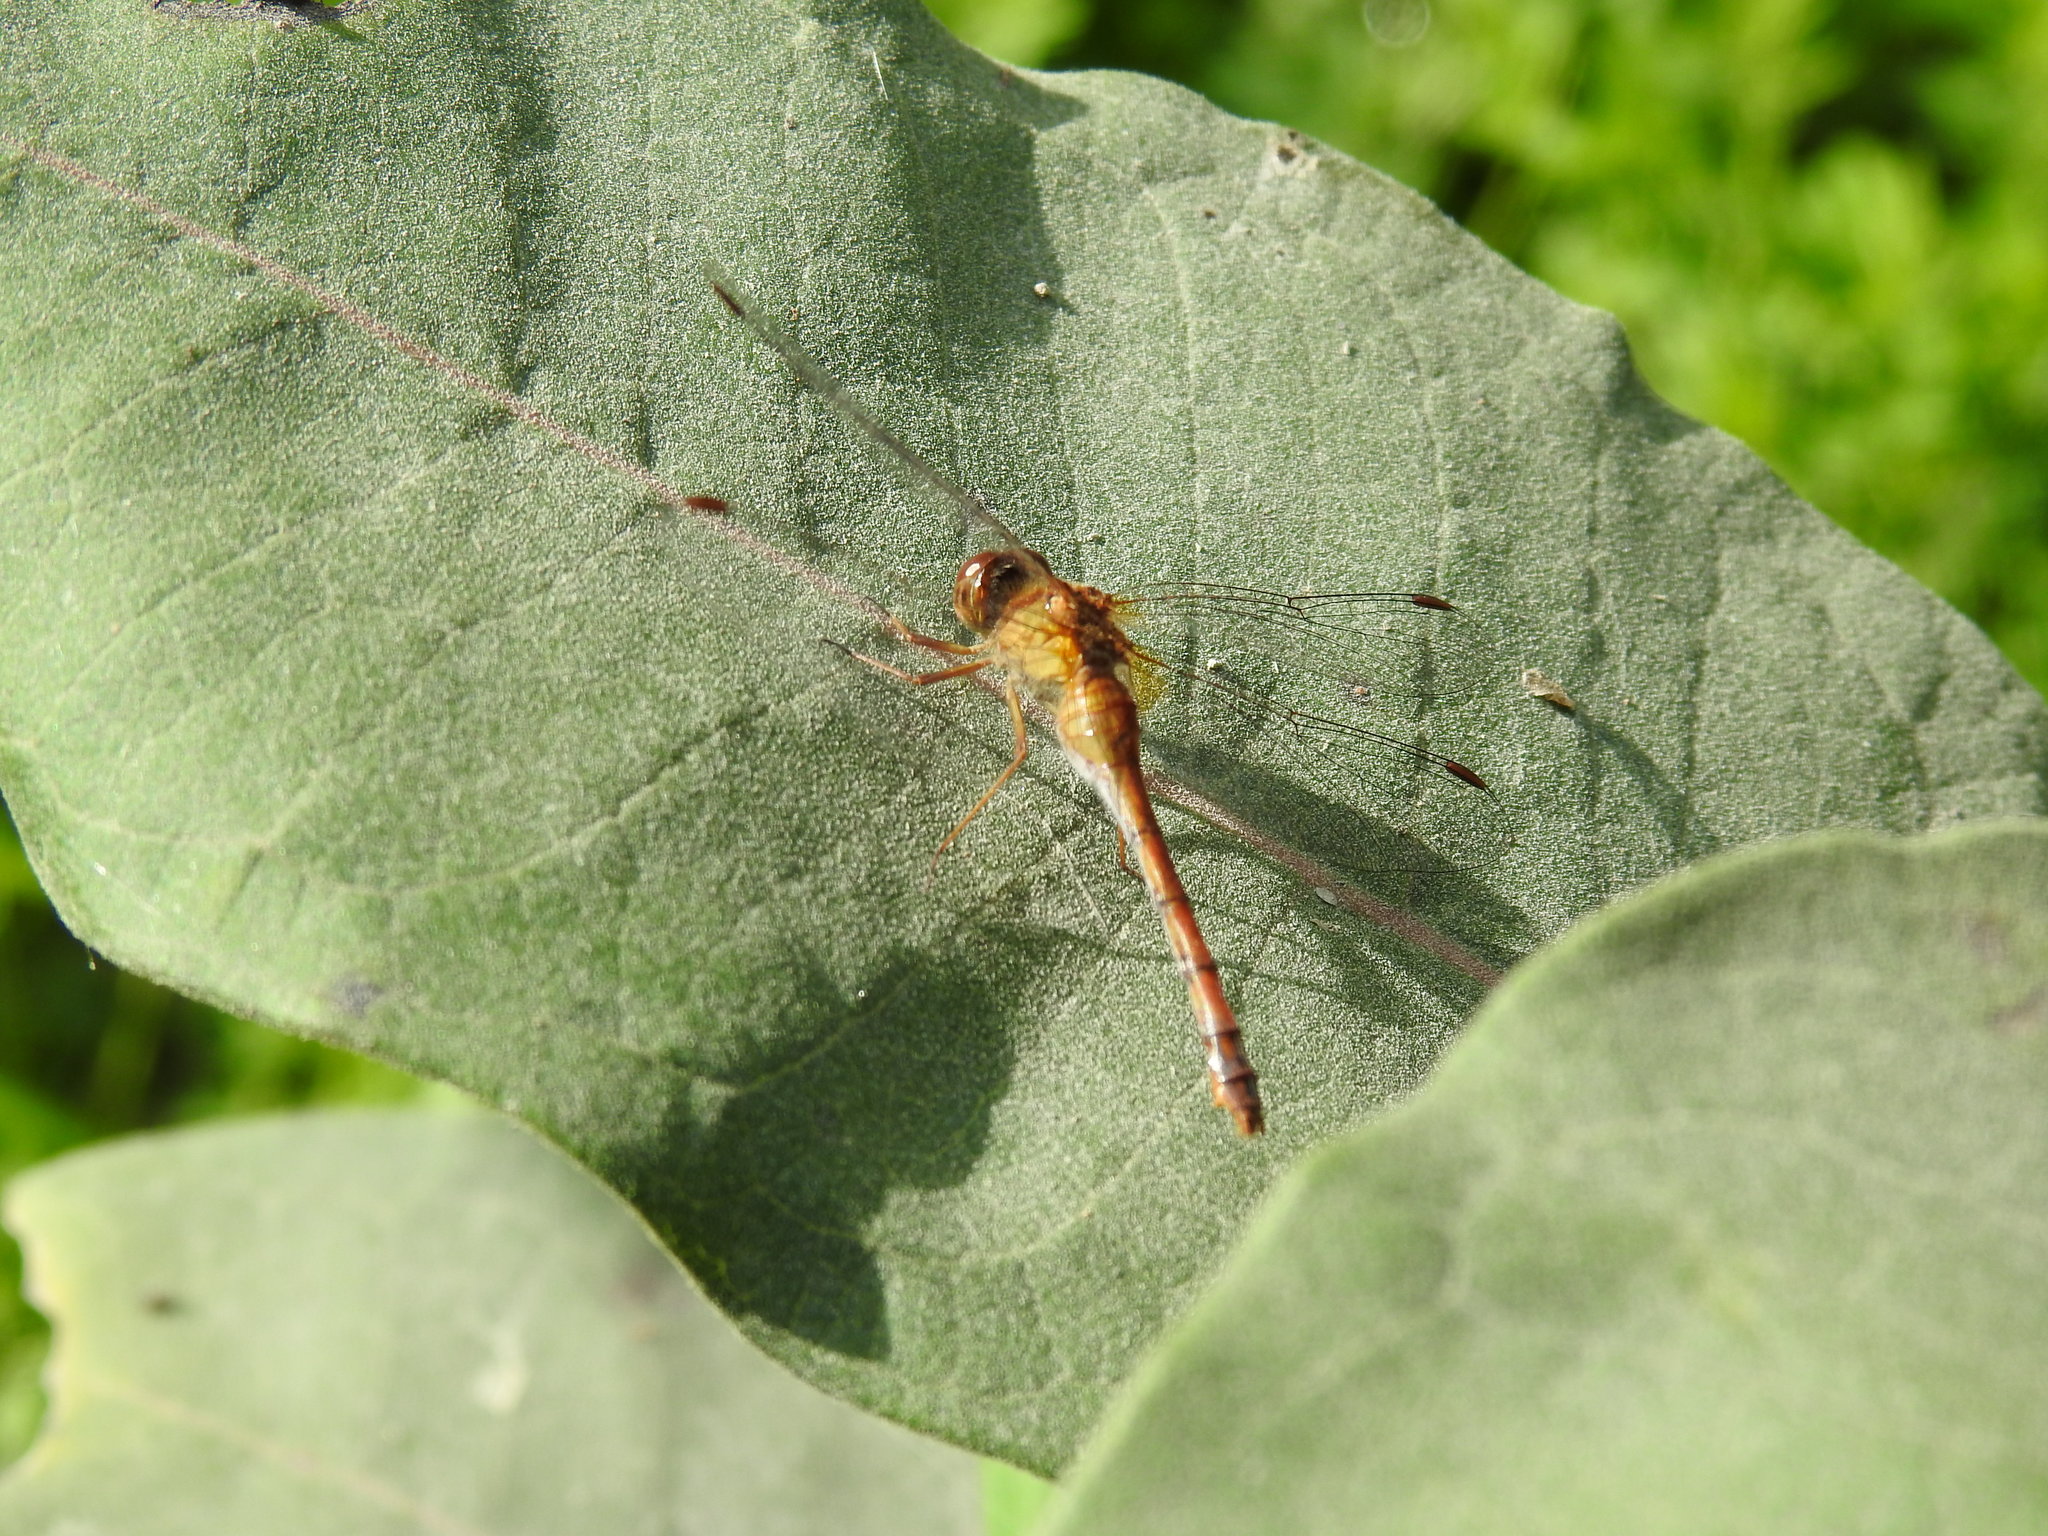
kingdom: Animalia
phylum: Arthropoda
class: Insecta
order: Odonata
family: Libellulidae
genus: Sympetrum
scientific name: Sympetrum vicinum
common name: Autumn meadowhawk
